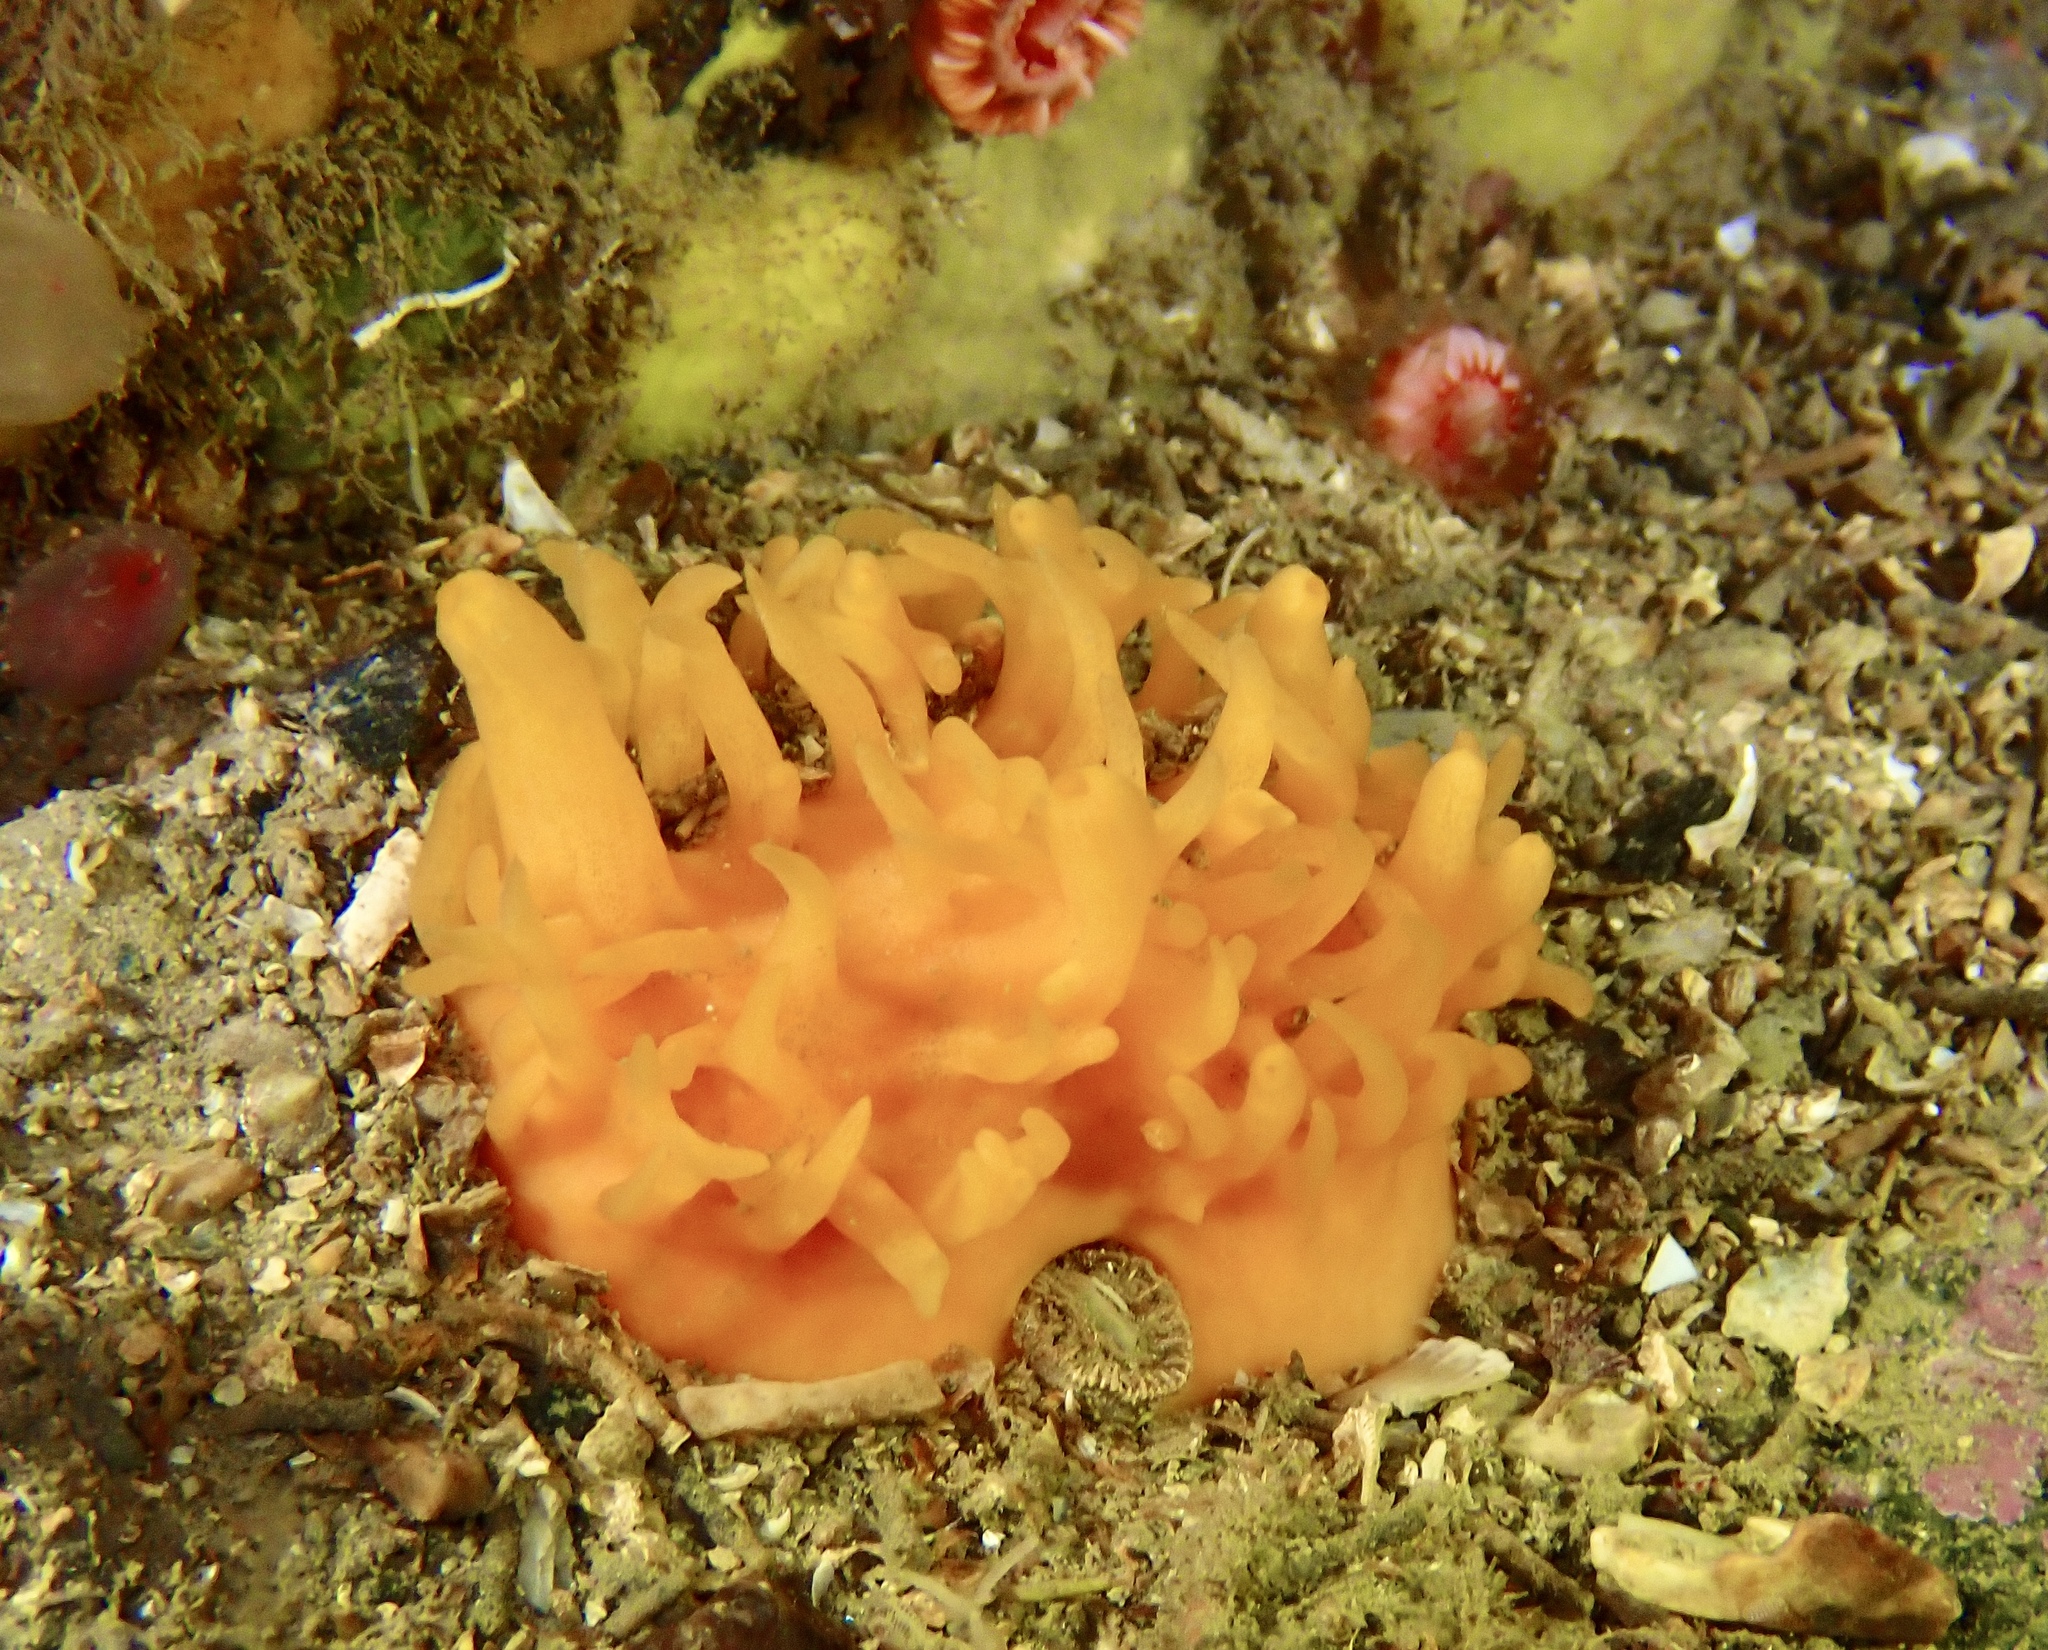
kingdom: Animalia
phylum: Porifera
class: Demospongiae
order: Polymastiida
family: Polymastiidae
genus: Polymastia
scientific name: Polymastia boletiformis
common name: Massive horny sponge
